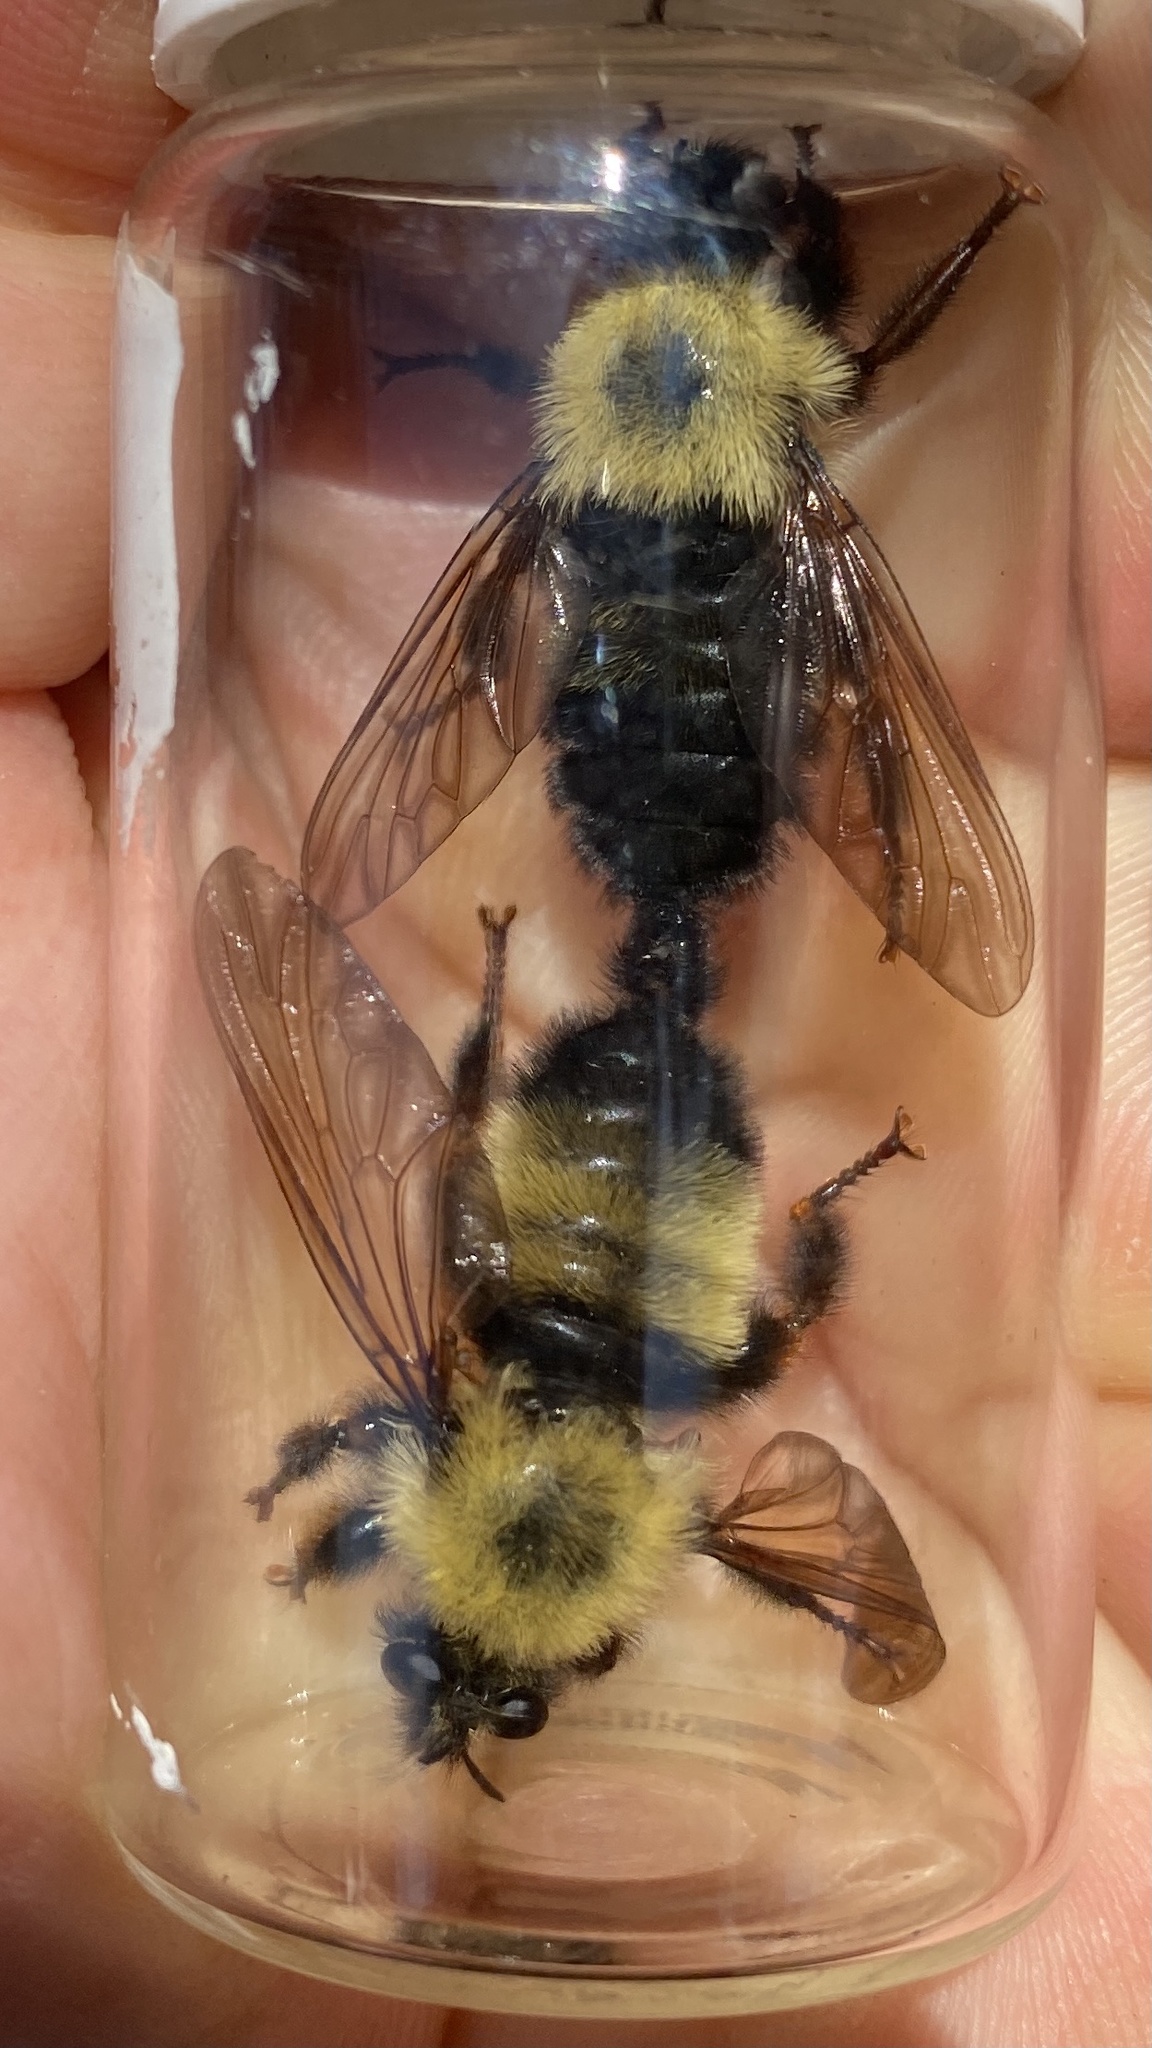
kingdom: Animalia
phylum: Arthropoda
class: Insecta
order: Diptera
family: Asilidae
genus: Laphria
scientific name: Laphria thoracica
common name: Bumble bee mimic robber fly
